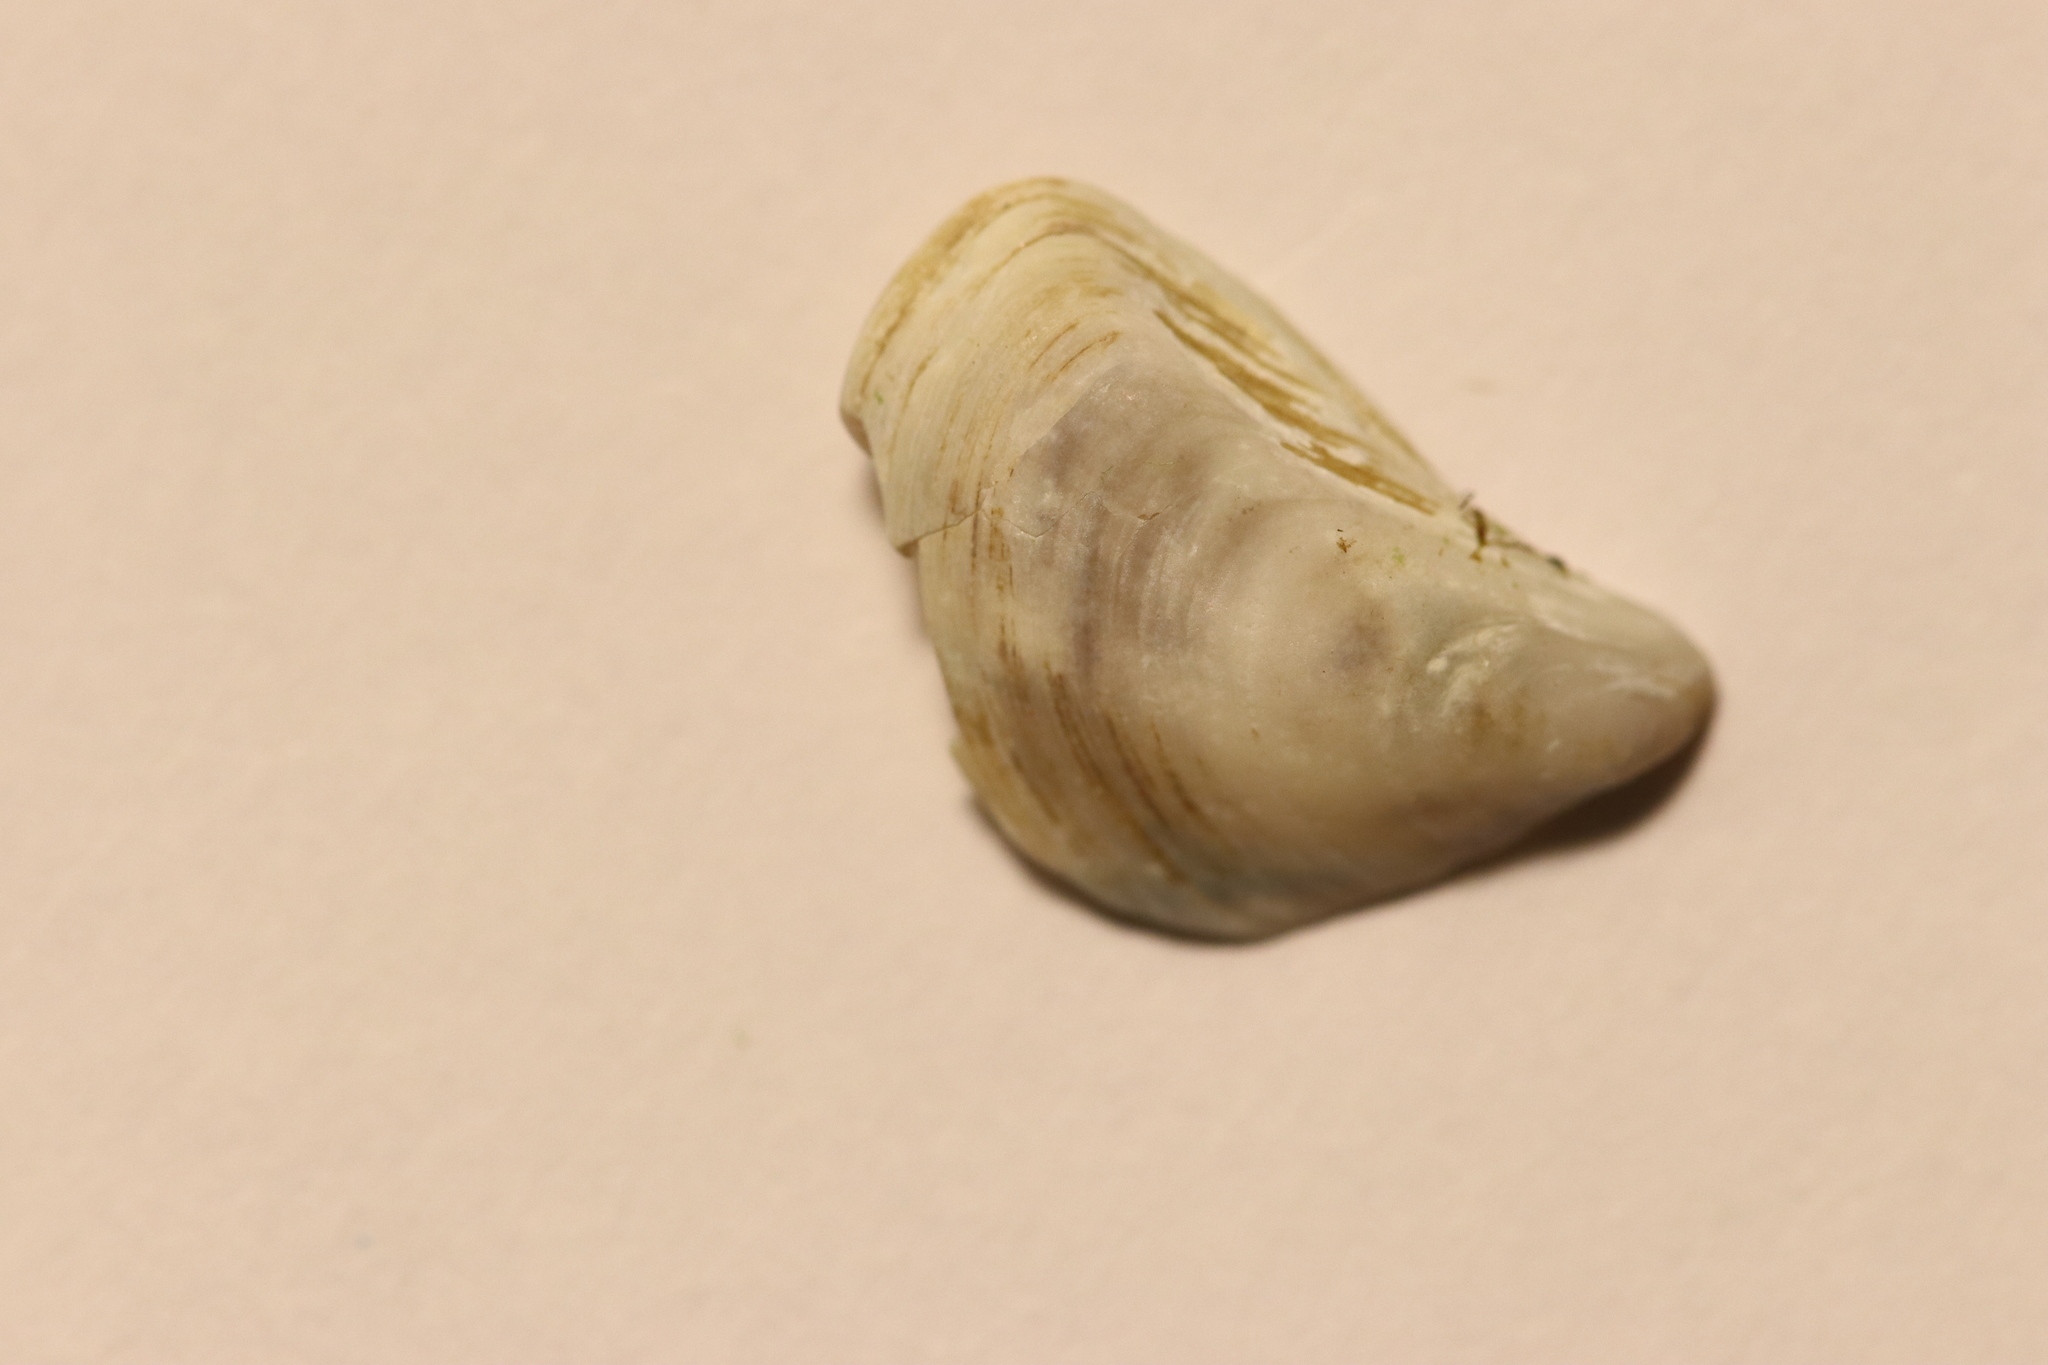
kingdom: Animalia
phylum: Mollusca
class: Bivalvia
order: Myida
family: Dreissenidae
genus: Dreissena
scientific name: Dreissena bugensis
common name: Quagga mussel
